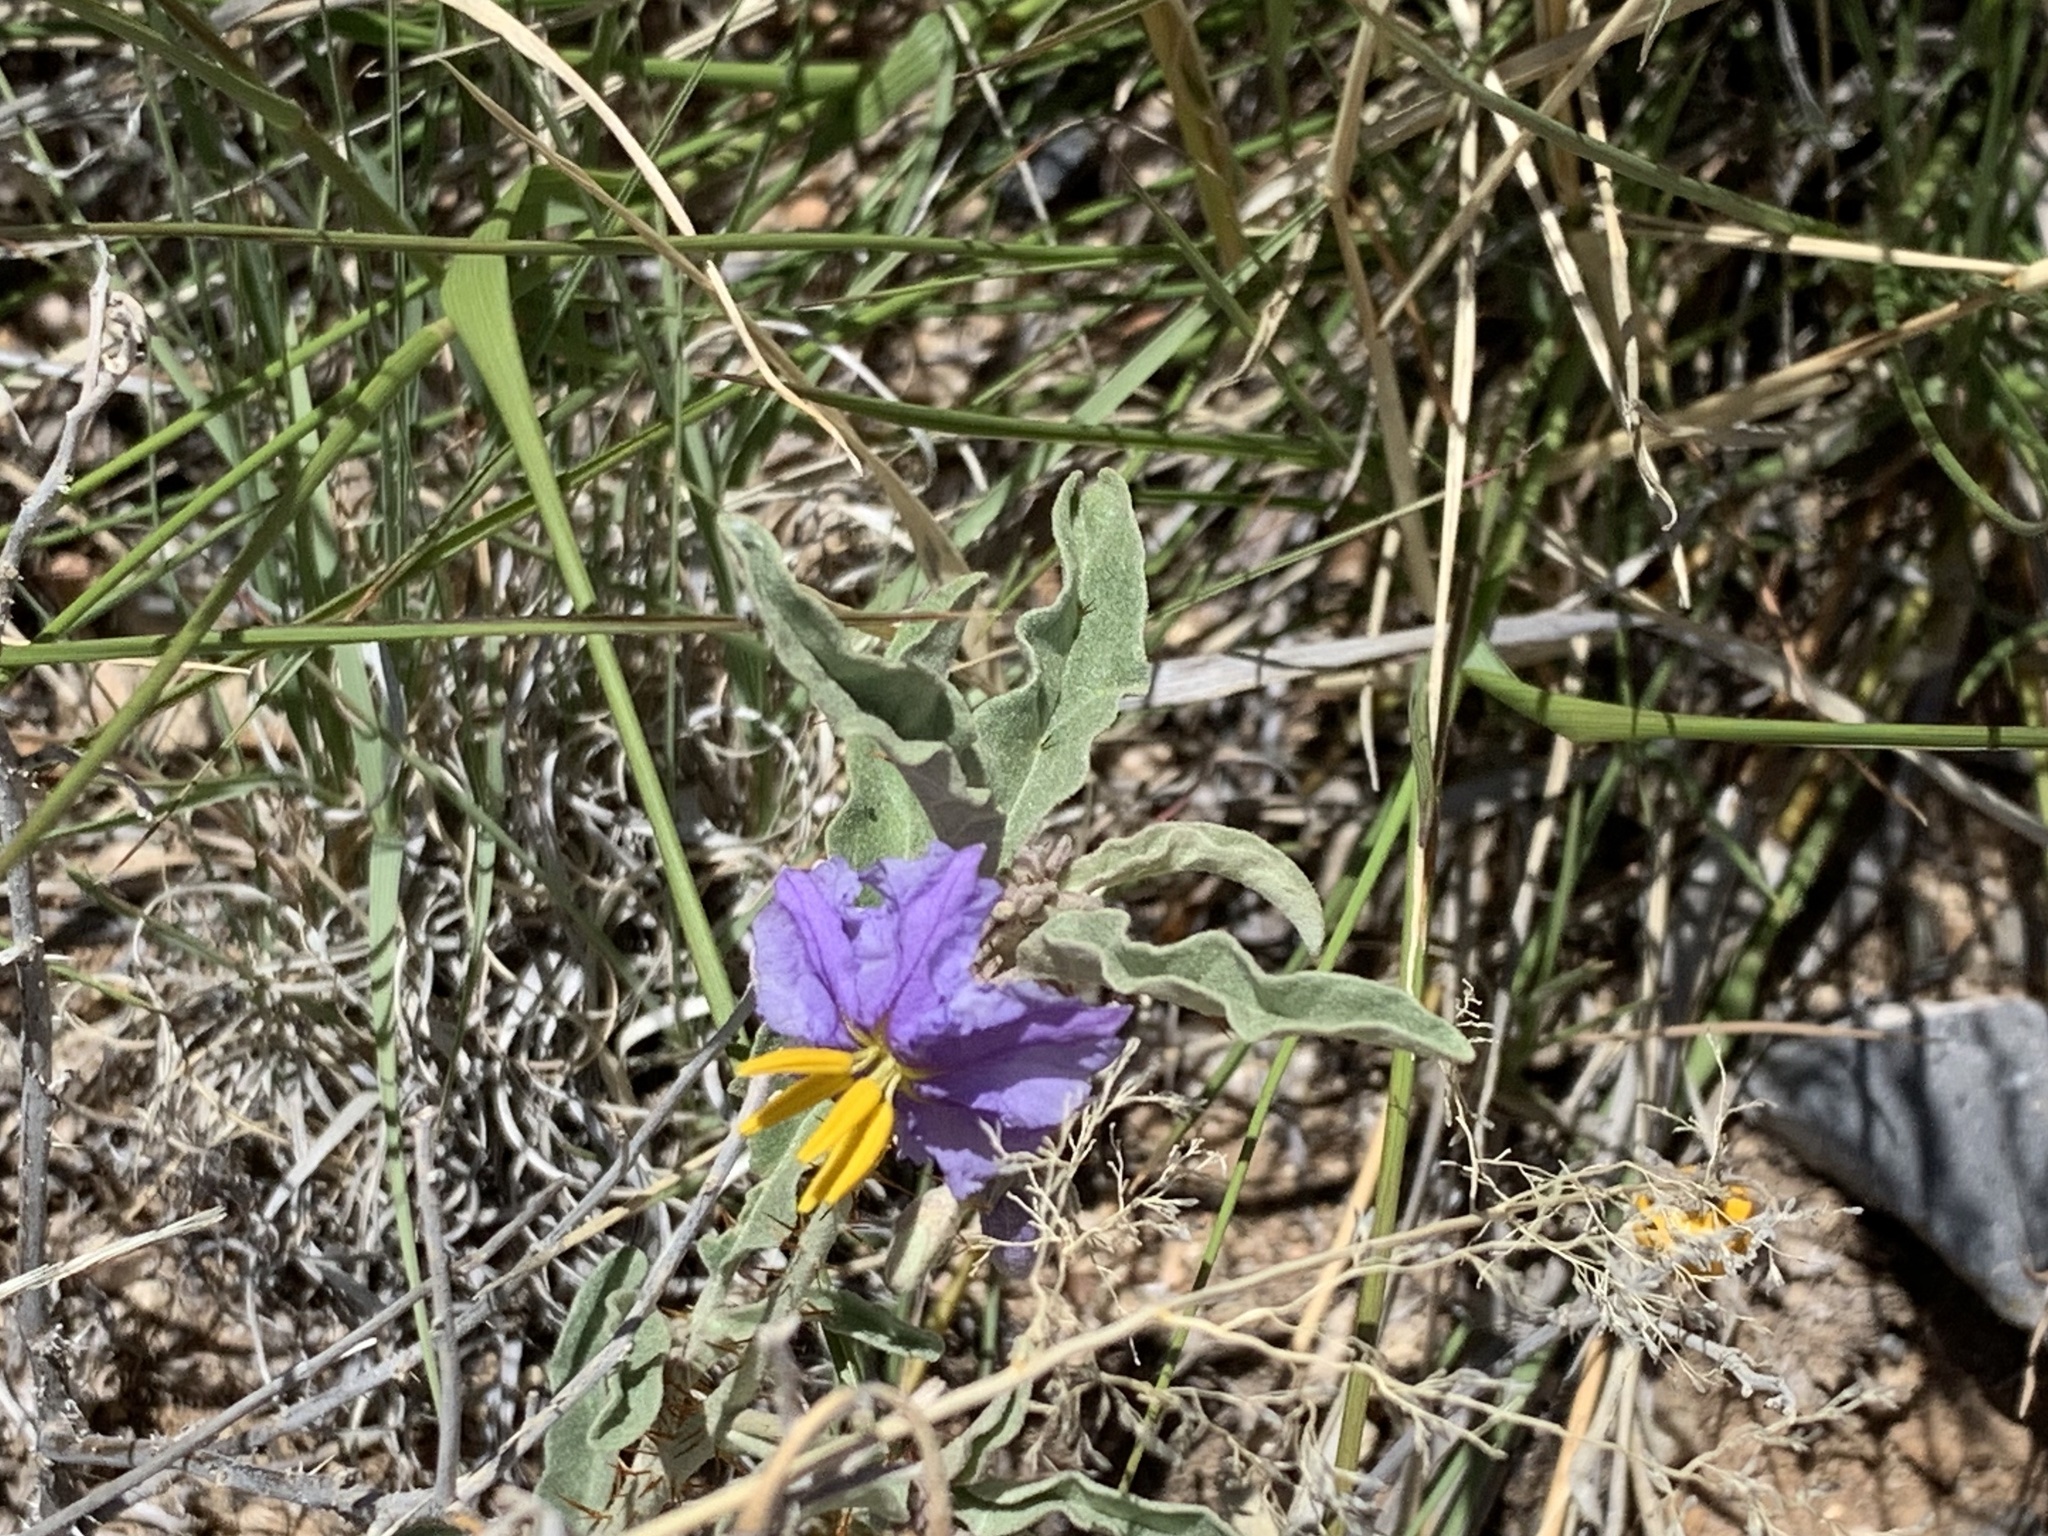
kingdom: Plantae
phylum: Tracheophyta
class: Magnoliopsida
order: Solanales
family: Solanaceae
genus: Solanum
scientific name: Solanum elaeagnifolium
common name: Silverleaf nightshade
